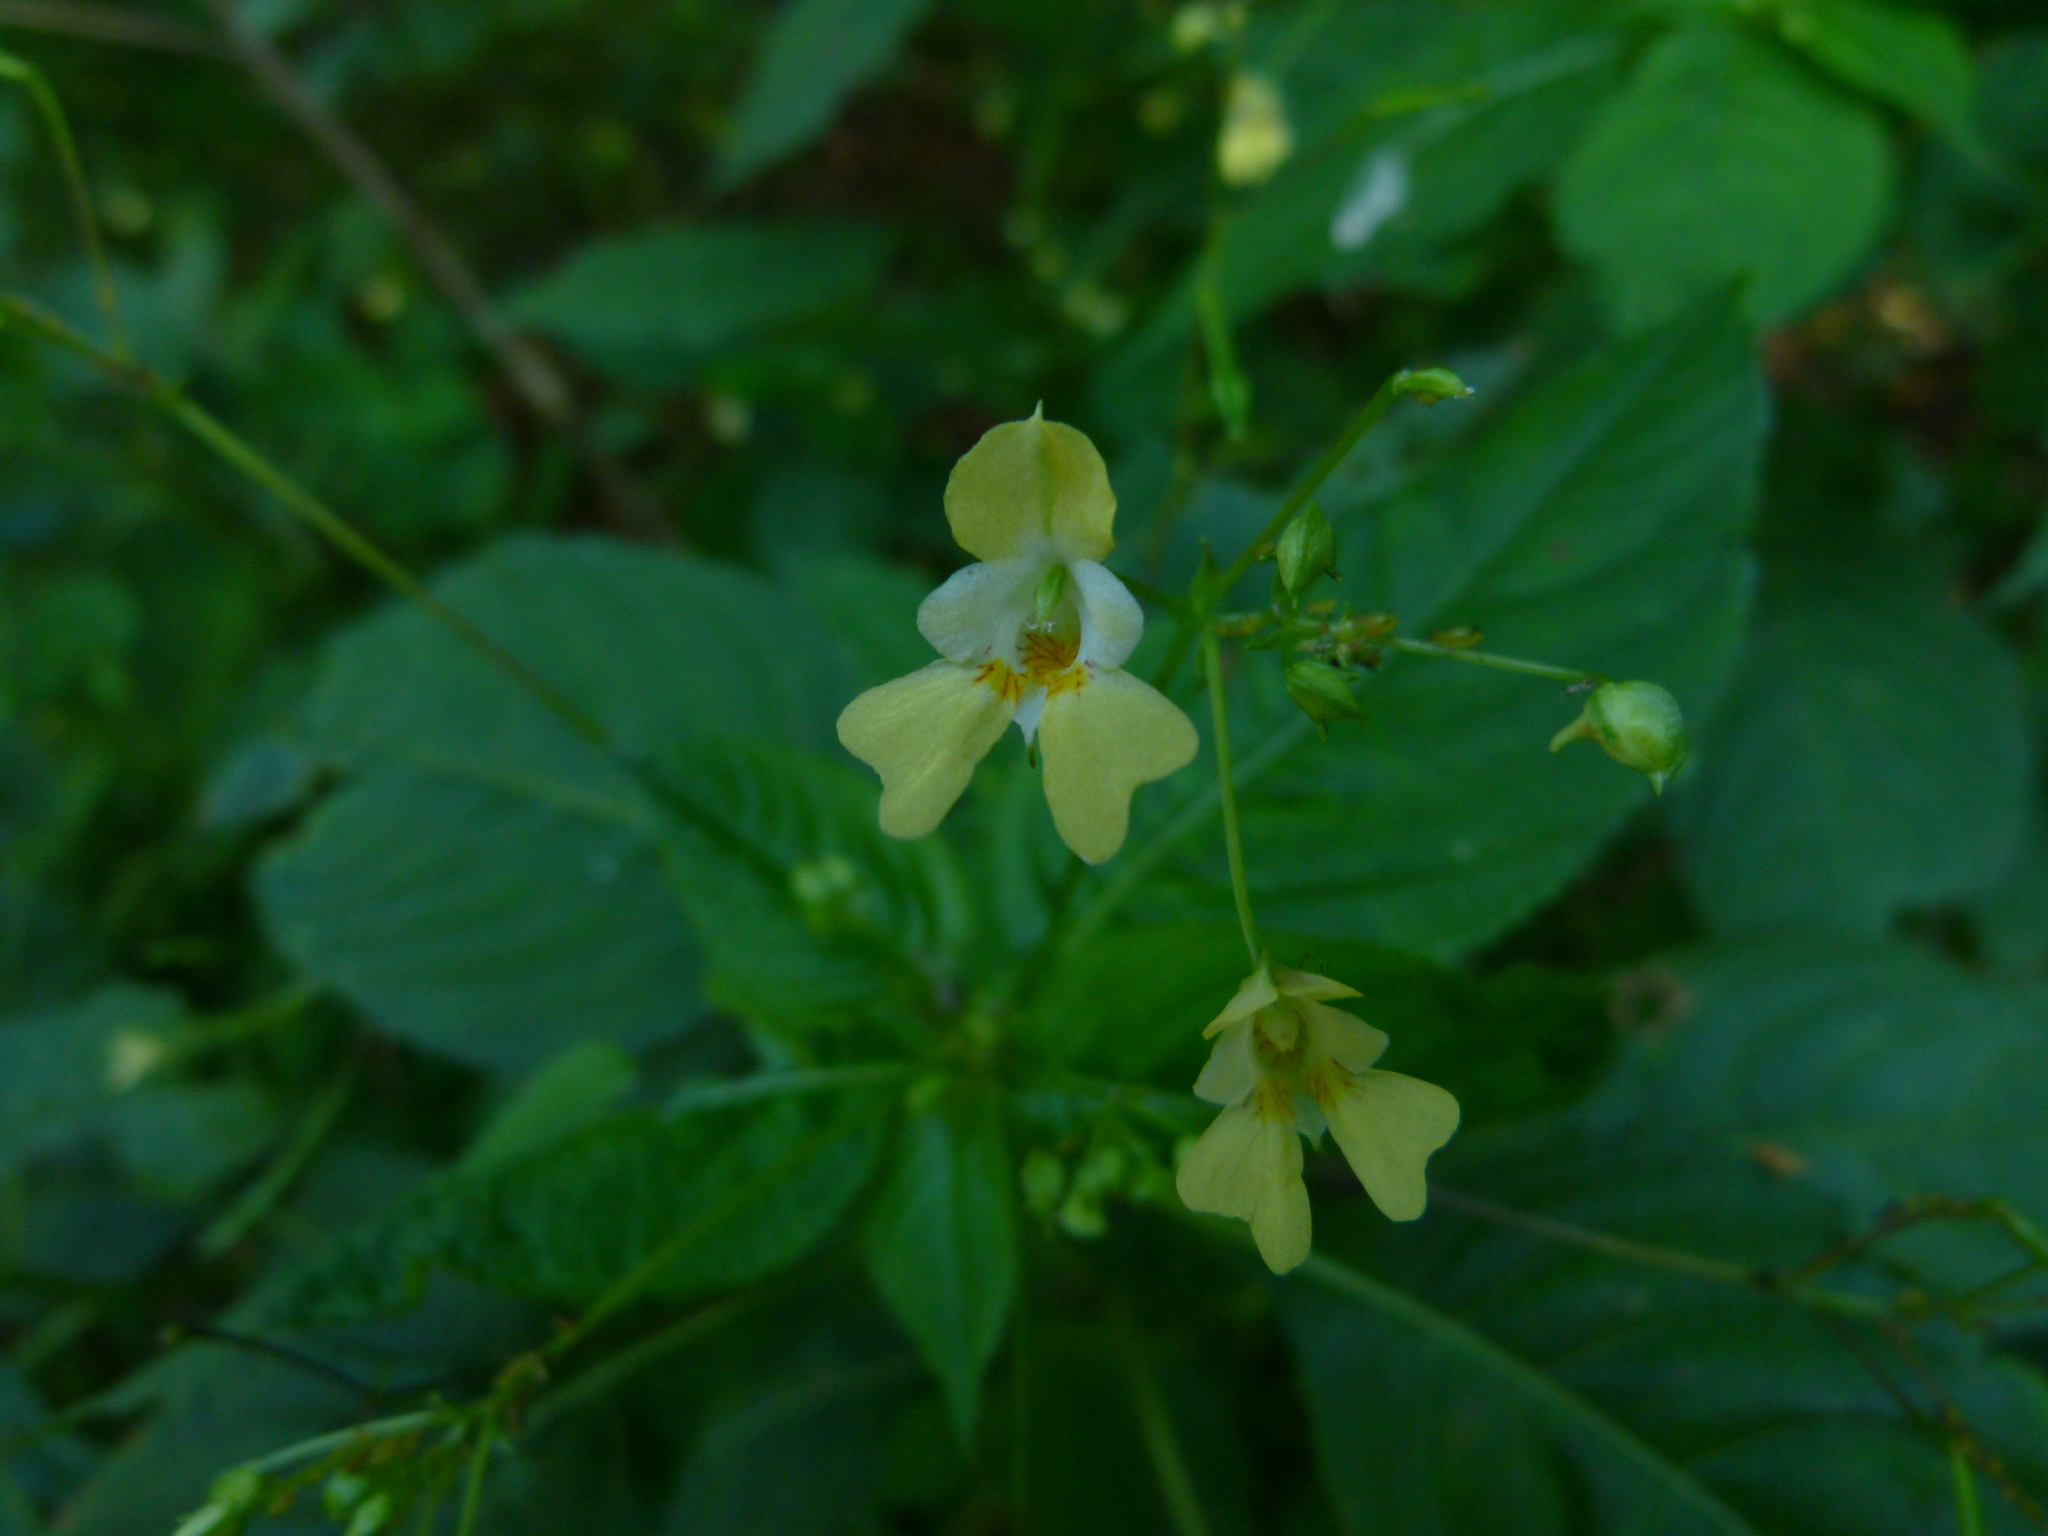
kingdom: Plantae
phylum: Tracheophyta
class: Magnoliopsida
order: Ericales
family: Balsaminaceae
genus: Impatiens
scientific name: Impatiens parviflora
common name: Small balsam
